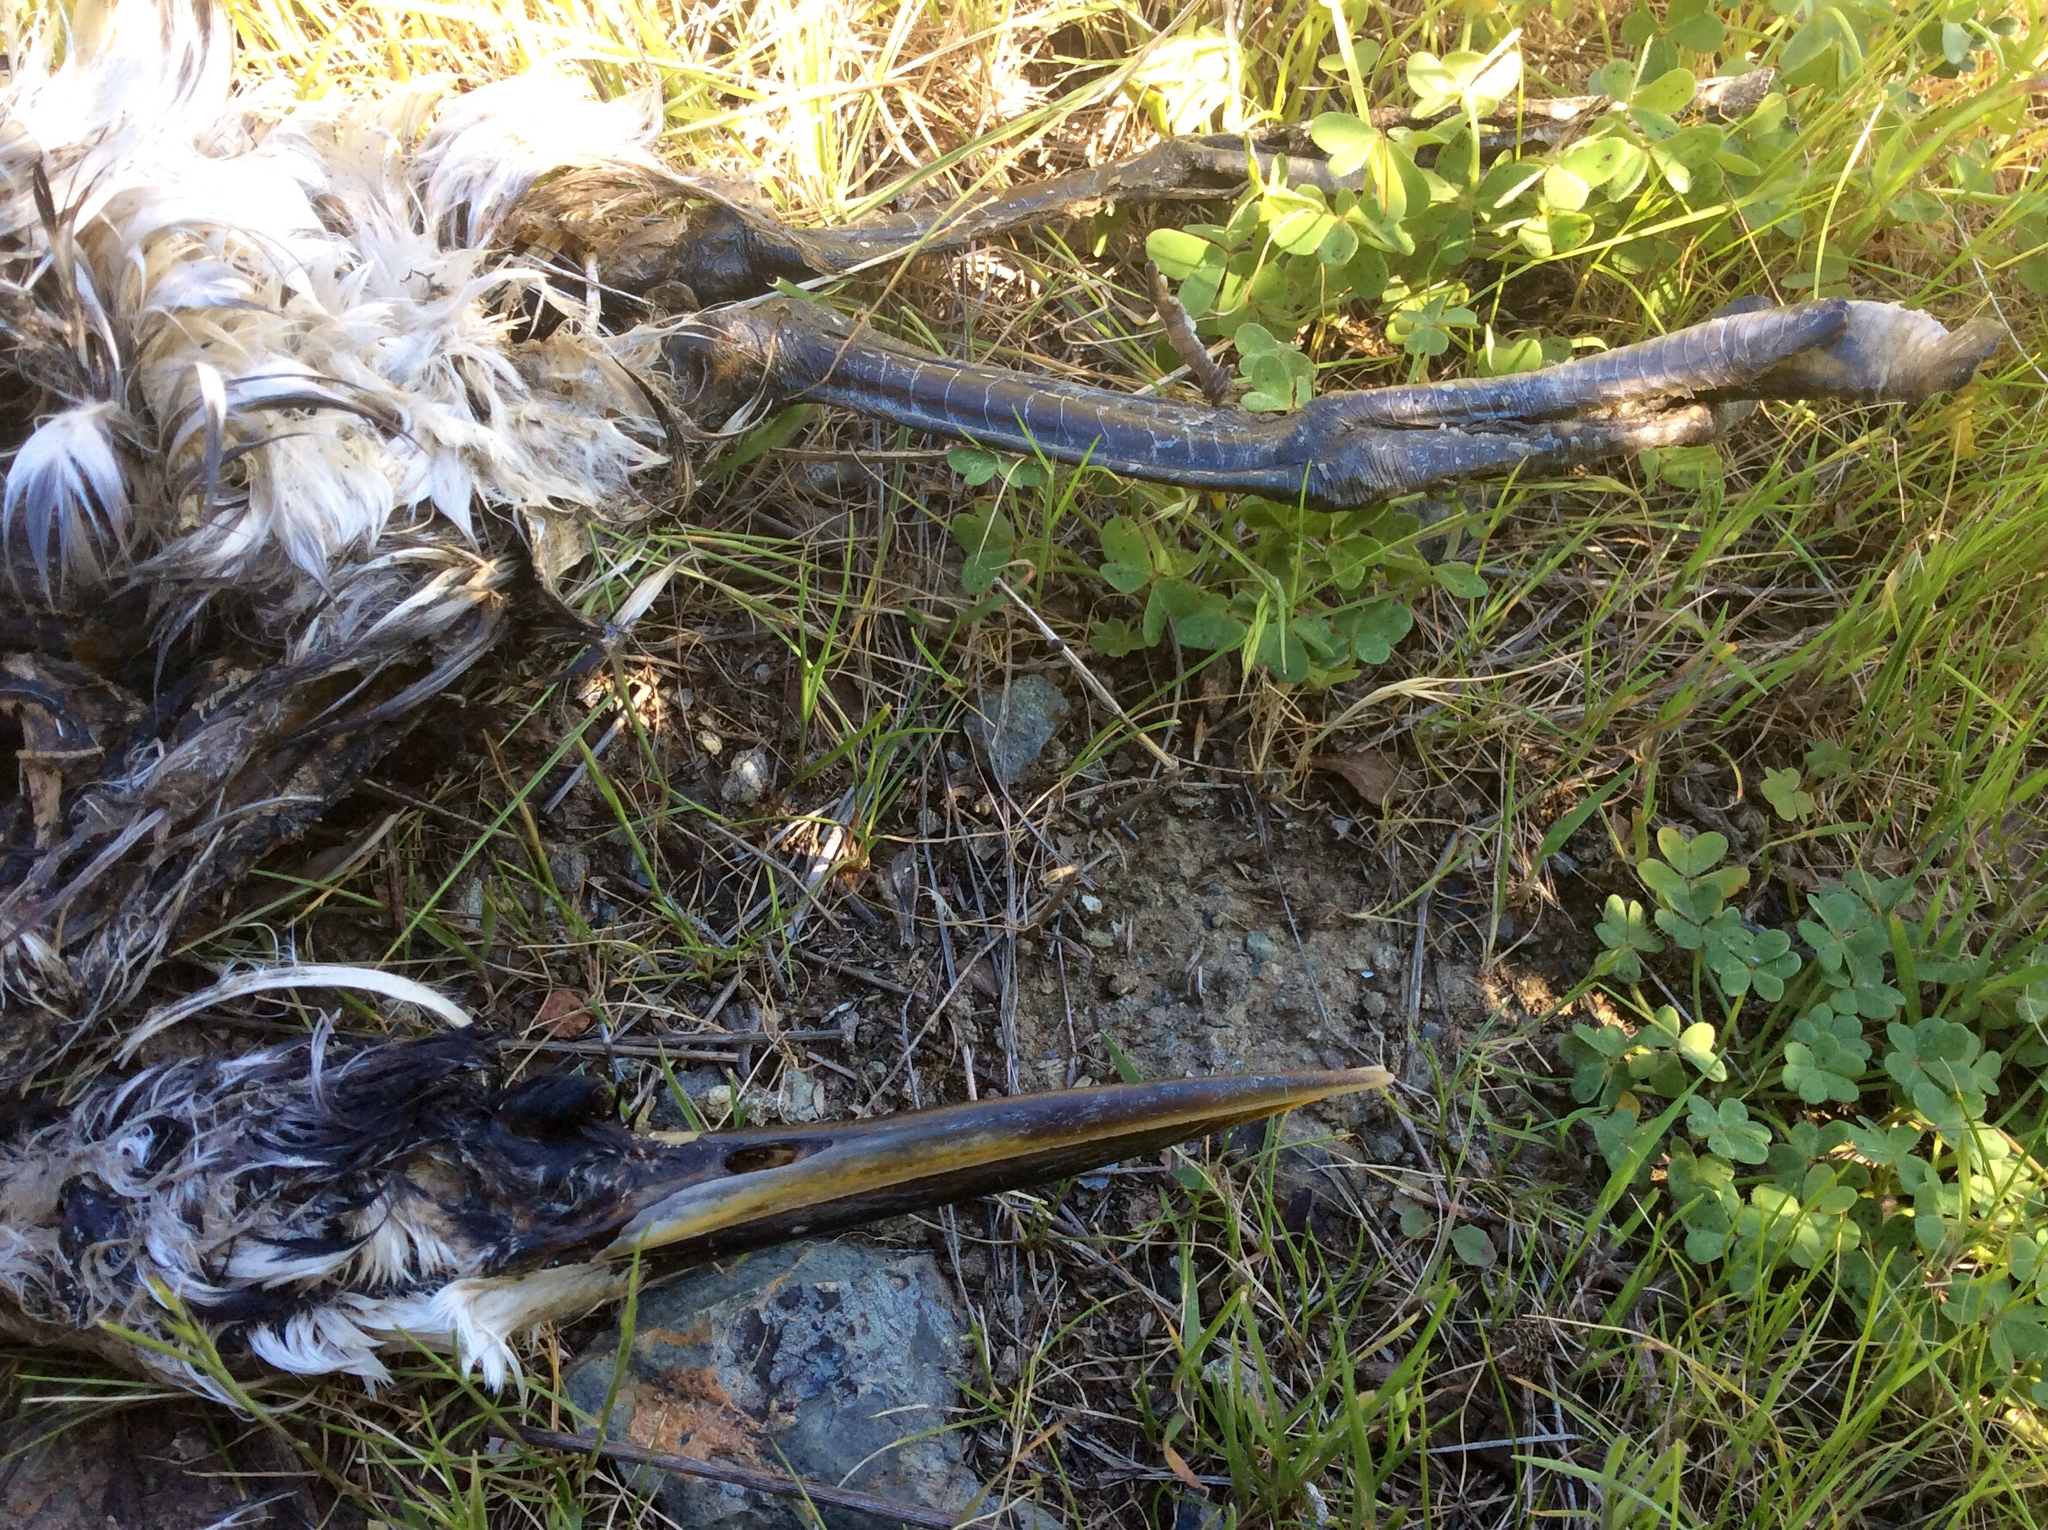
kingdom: Animalia
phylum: Chordata
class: Aves
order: Podicipediformes
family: Podicipedidae
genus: Aechmophorus
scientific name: Aechmophorus occidentalis
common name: Western grebe
